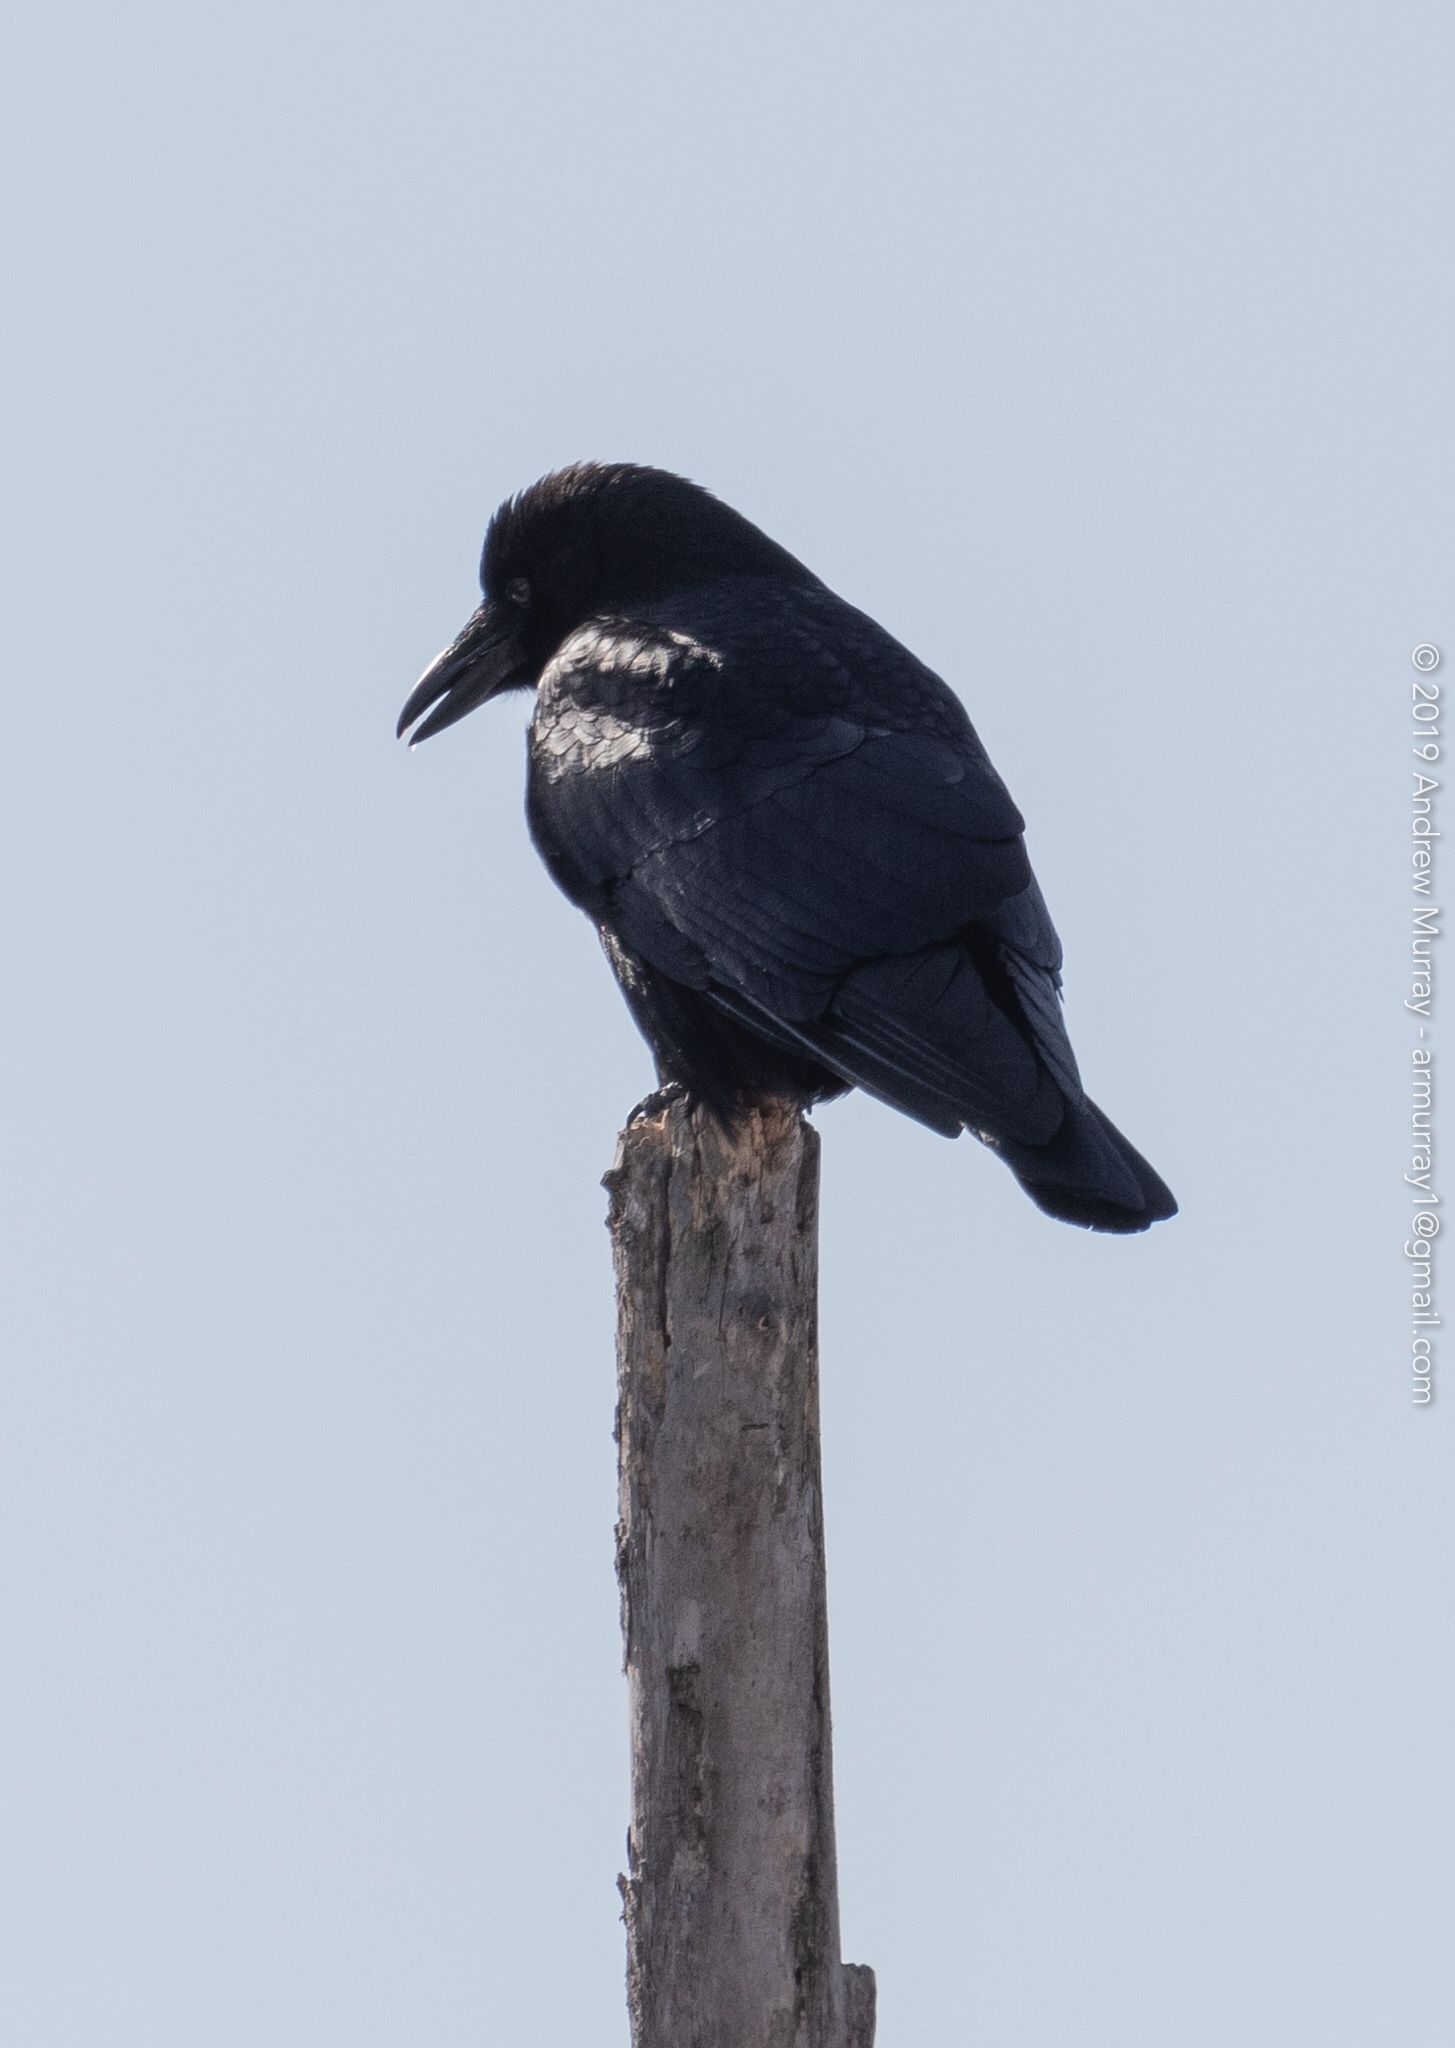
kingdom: Animalia
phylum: Chordata
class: Aves
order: Passeriformes
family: Corvidae
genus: Corvus
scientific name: Corvus brachyrhynchos
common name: American crow
